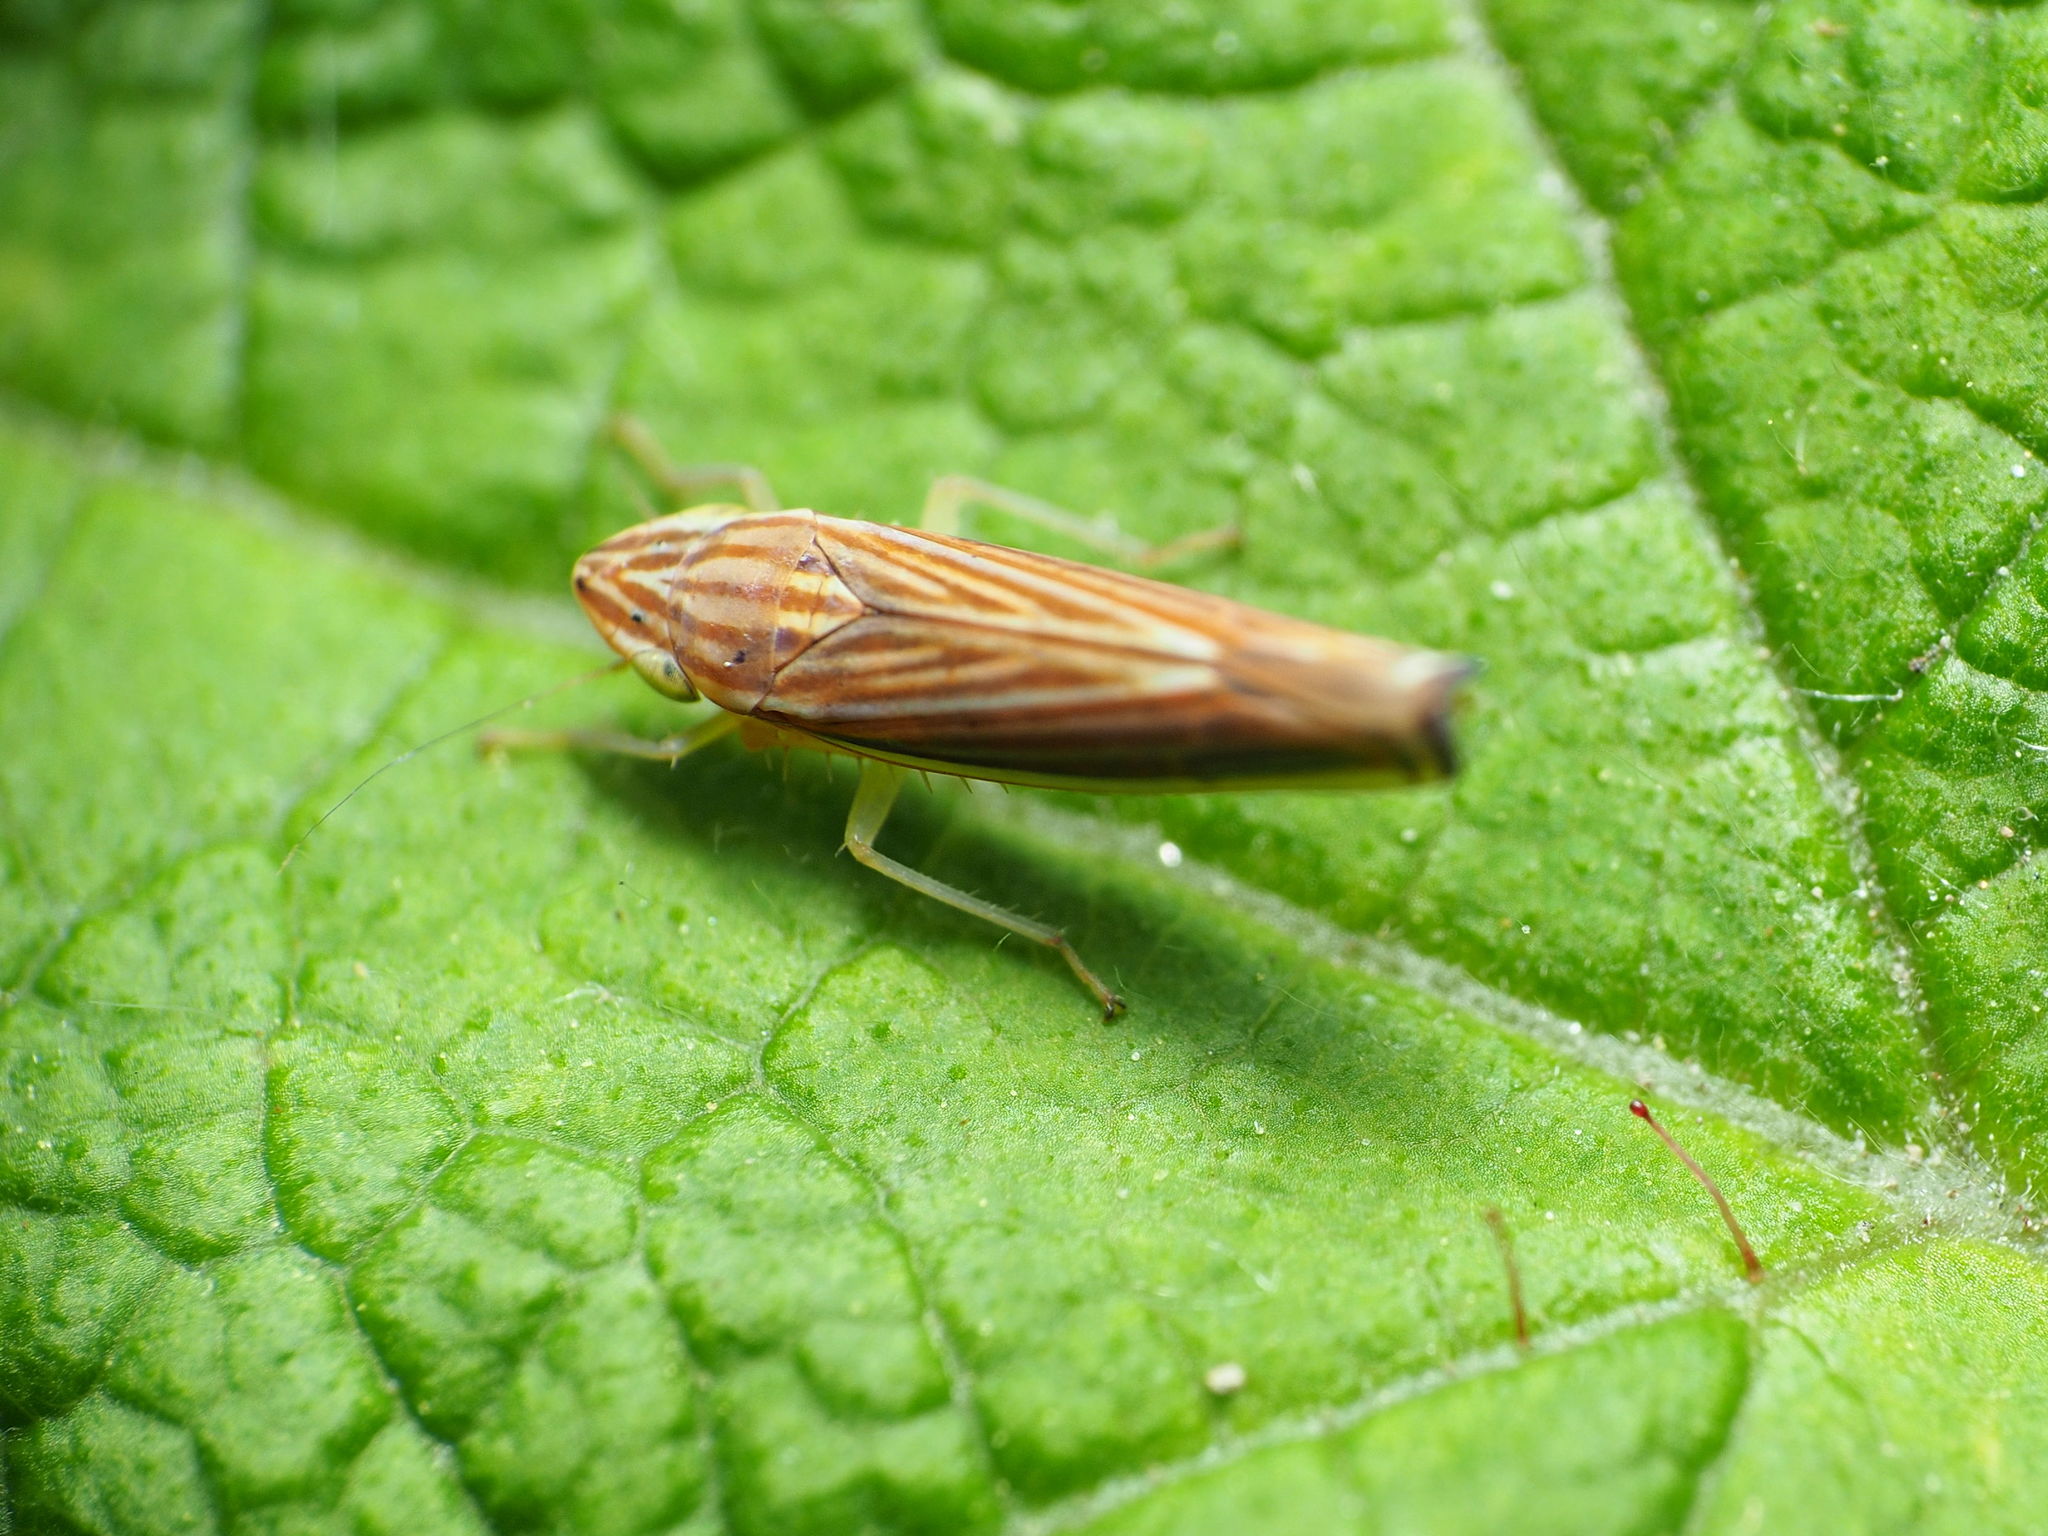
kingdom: Animalia
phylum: Arthropoda
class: Insecta
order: Hemiptera
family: Cicadellidae
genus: Sibovia
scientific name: Sibovia occatoria
